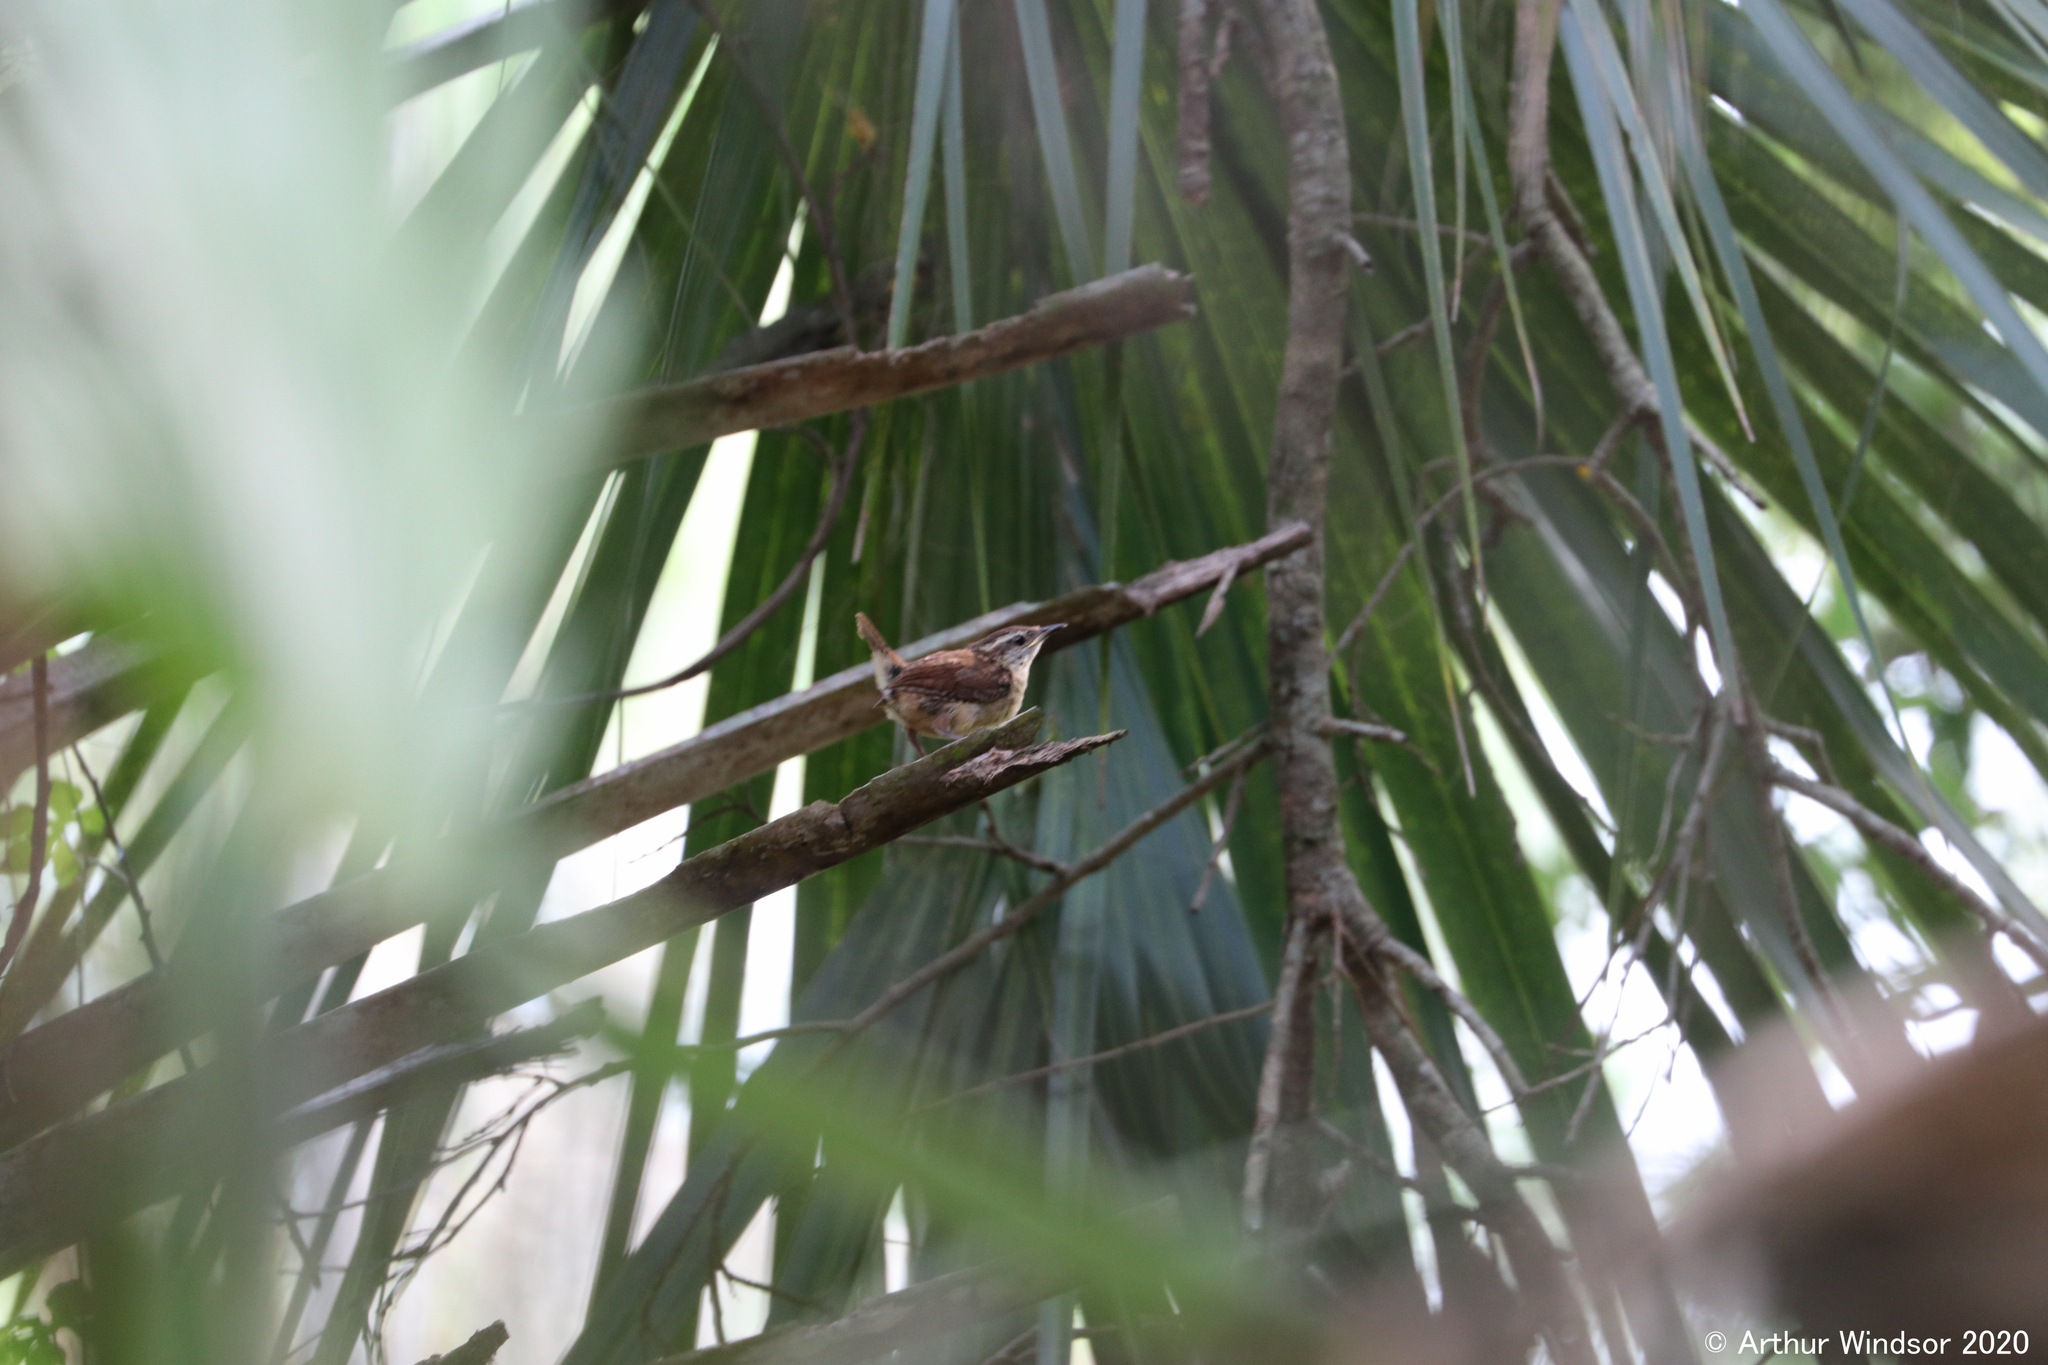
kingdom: Animalia
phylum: Chordata
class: Aves
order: Passeriformes
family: Troglodytidae
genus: Thryothorus
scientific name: Thryothorus ludovicianus
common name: Carolina wren
